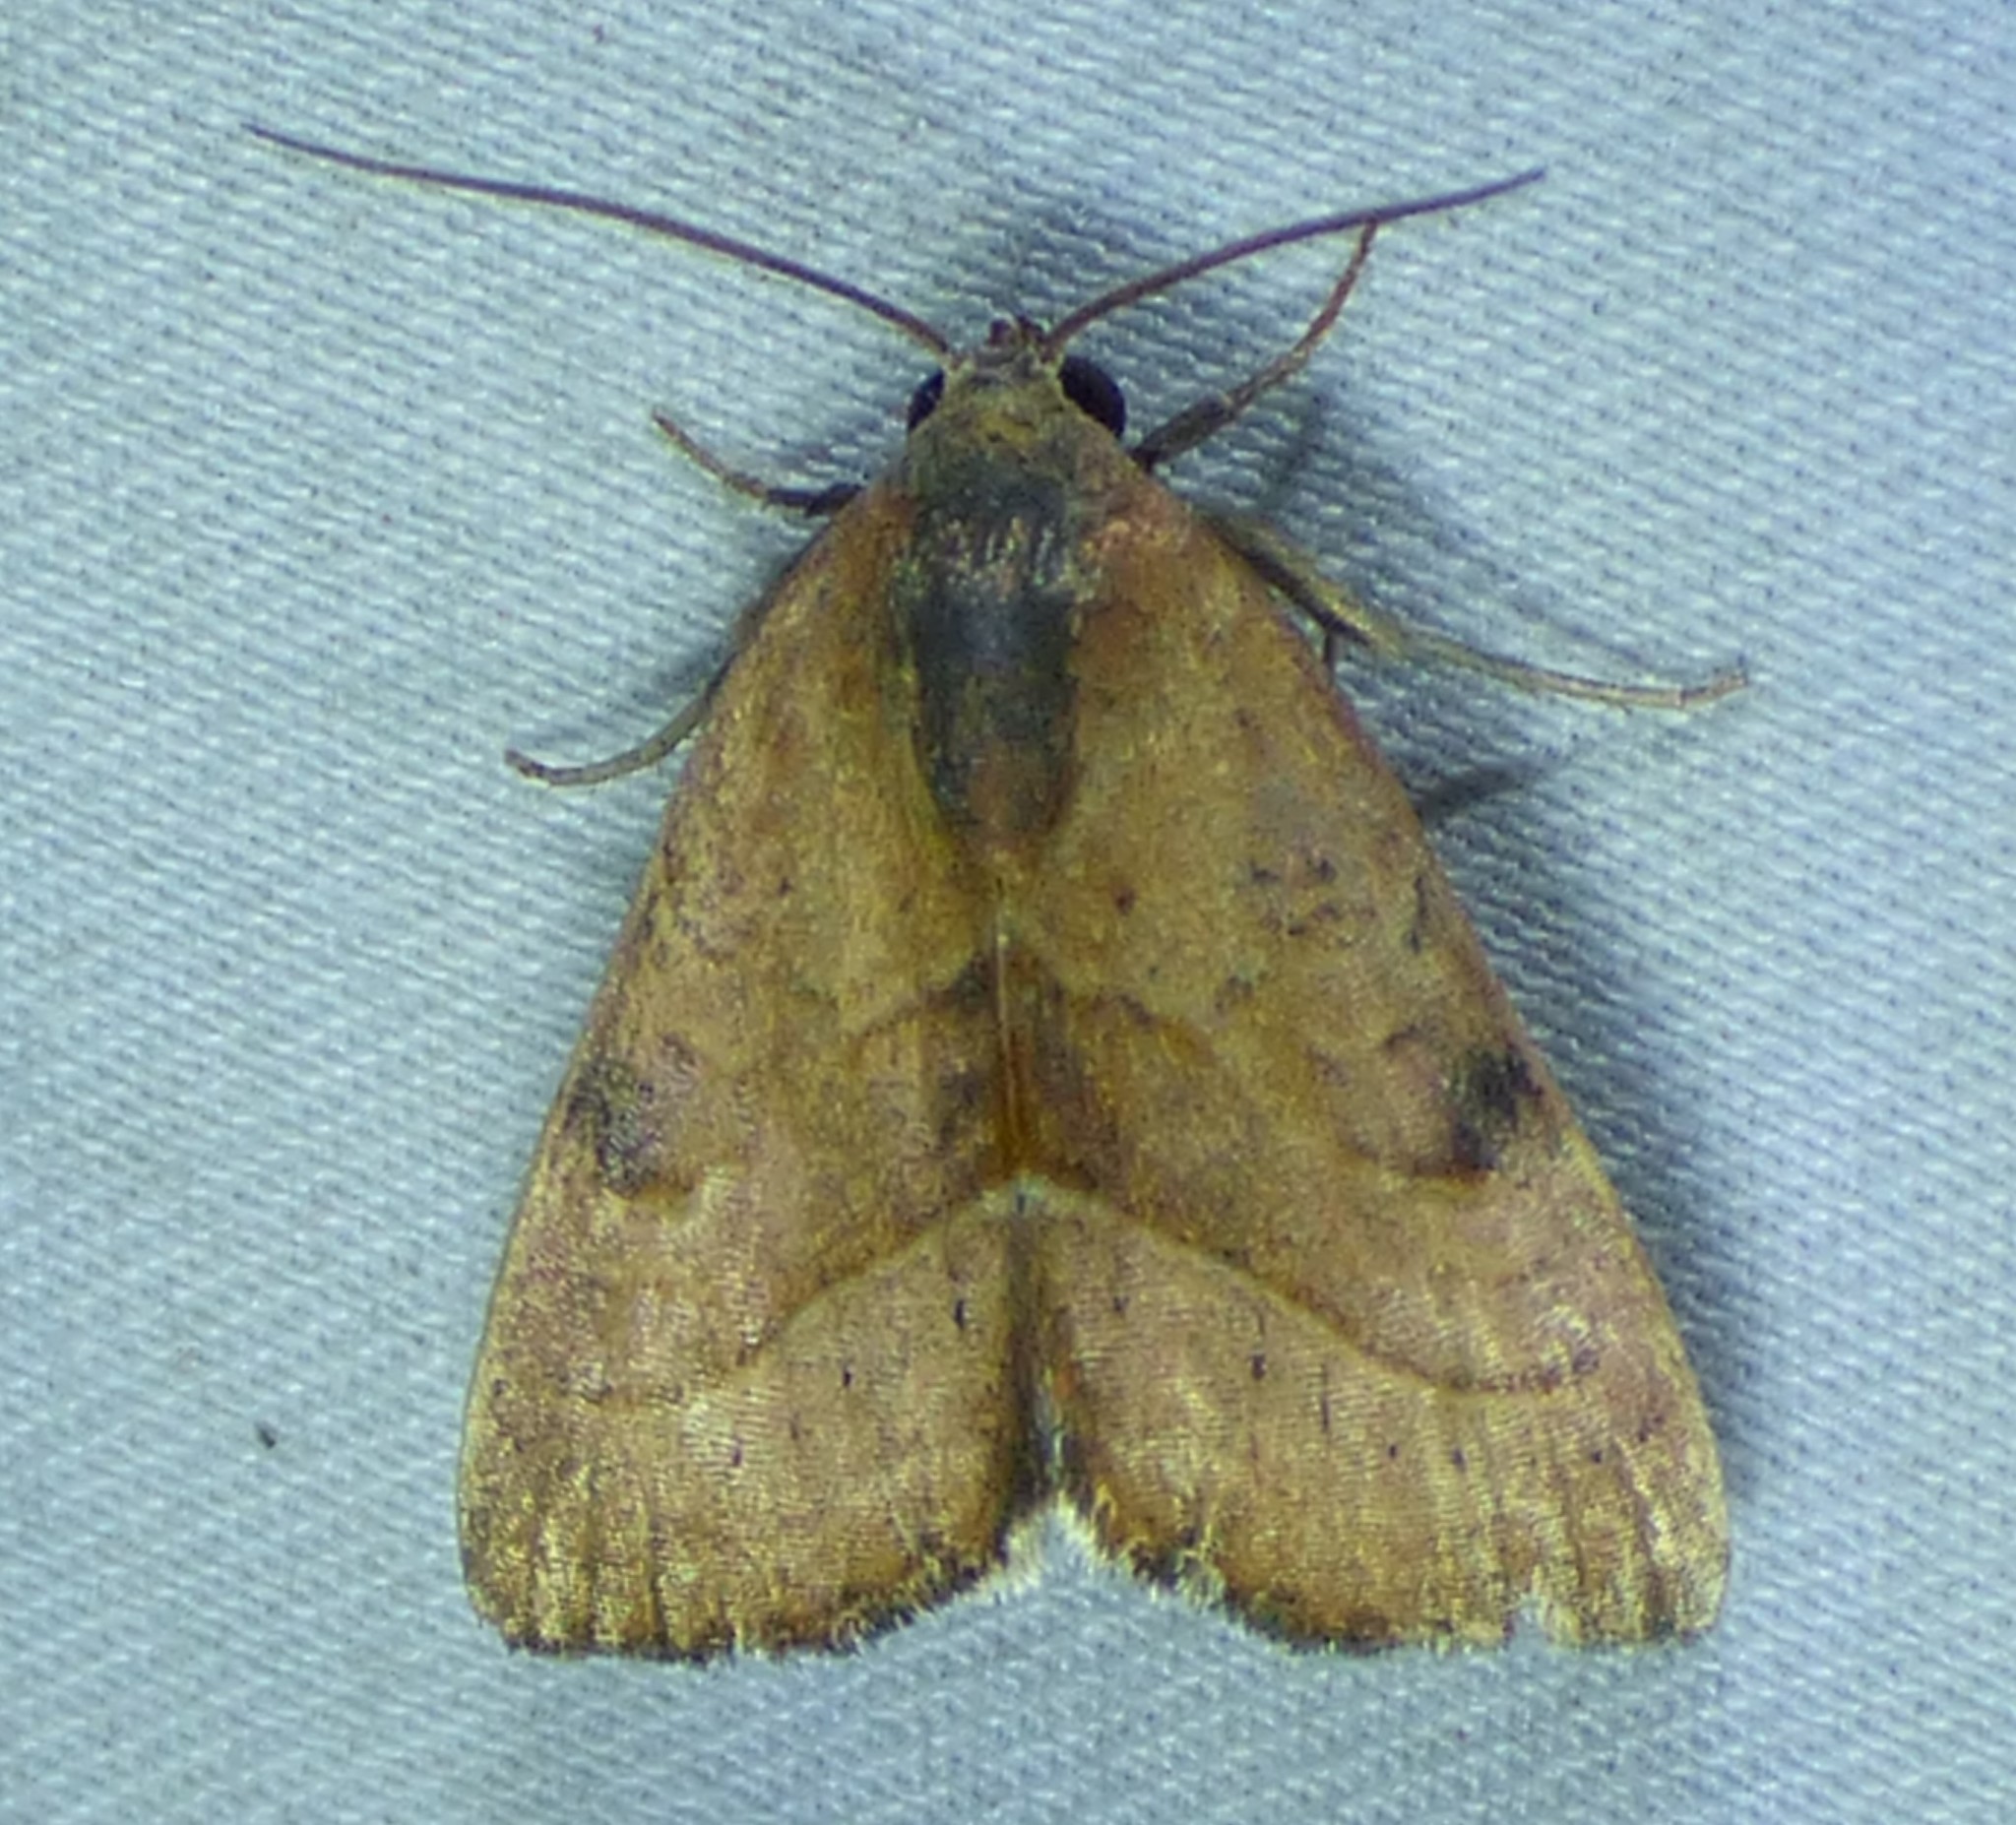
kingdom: Animalia
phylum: Arthropoda
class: Insecta
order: Lepidoptera
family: Noctuidae
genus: Galgula
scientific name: Galgula partita
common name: Wedgeling
